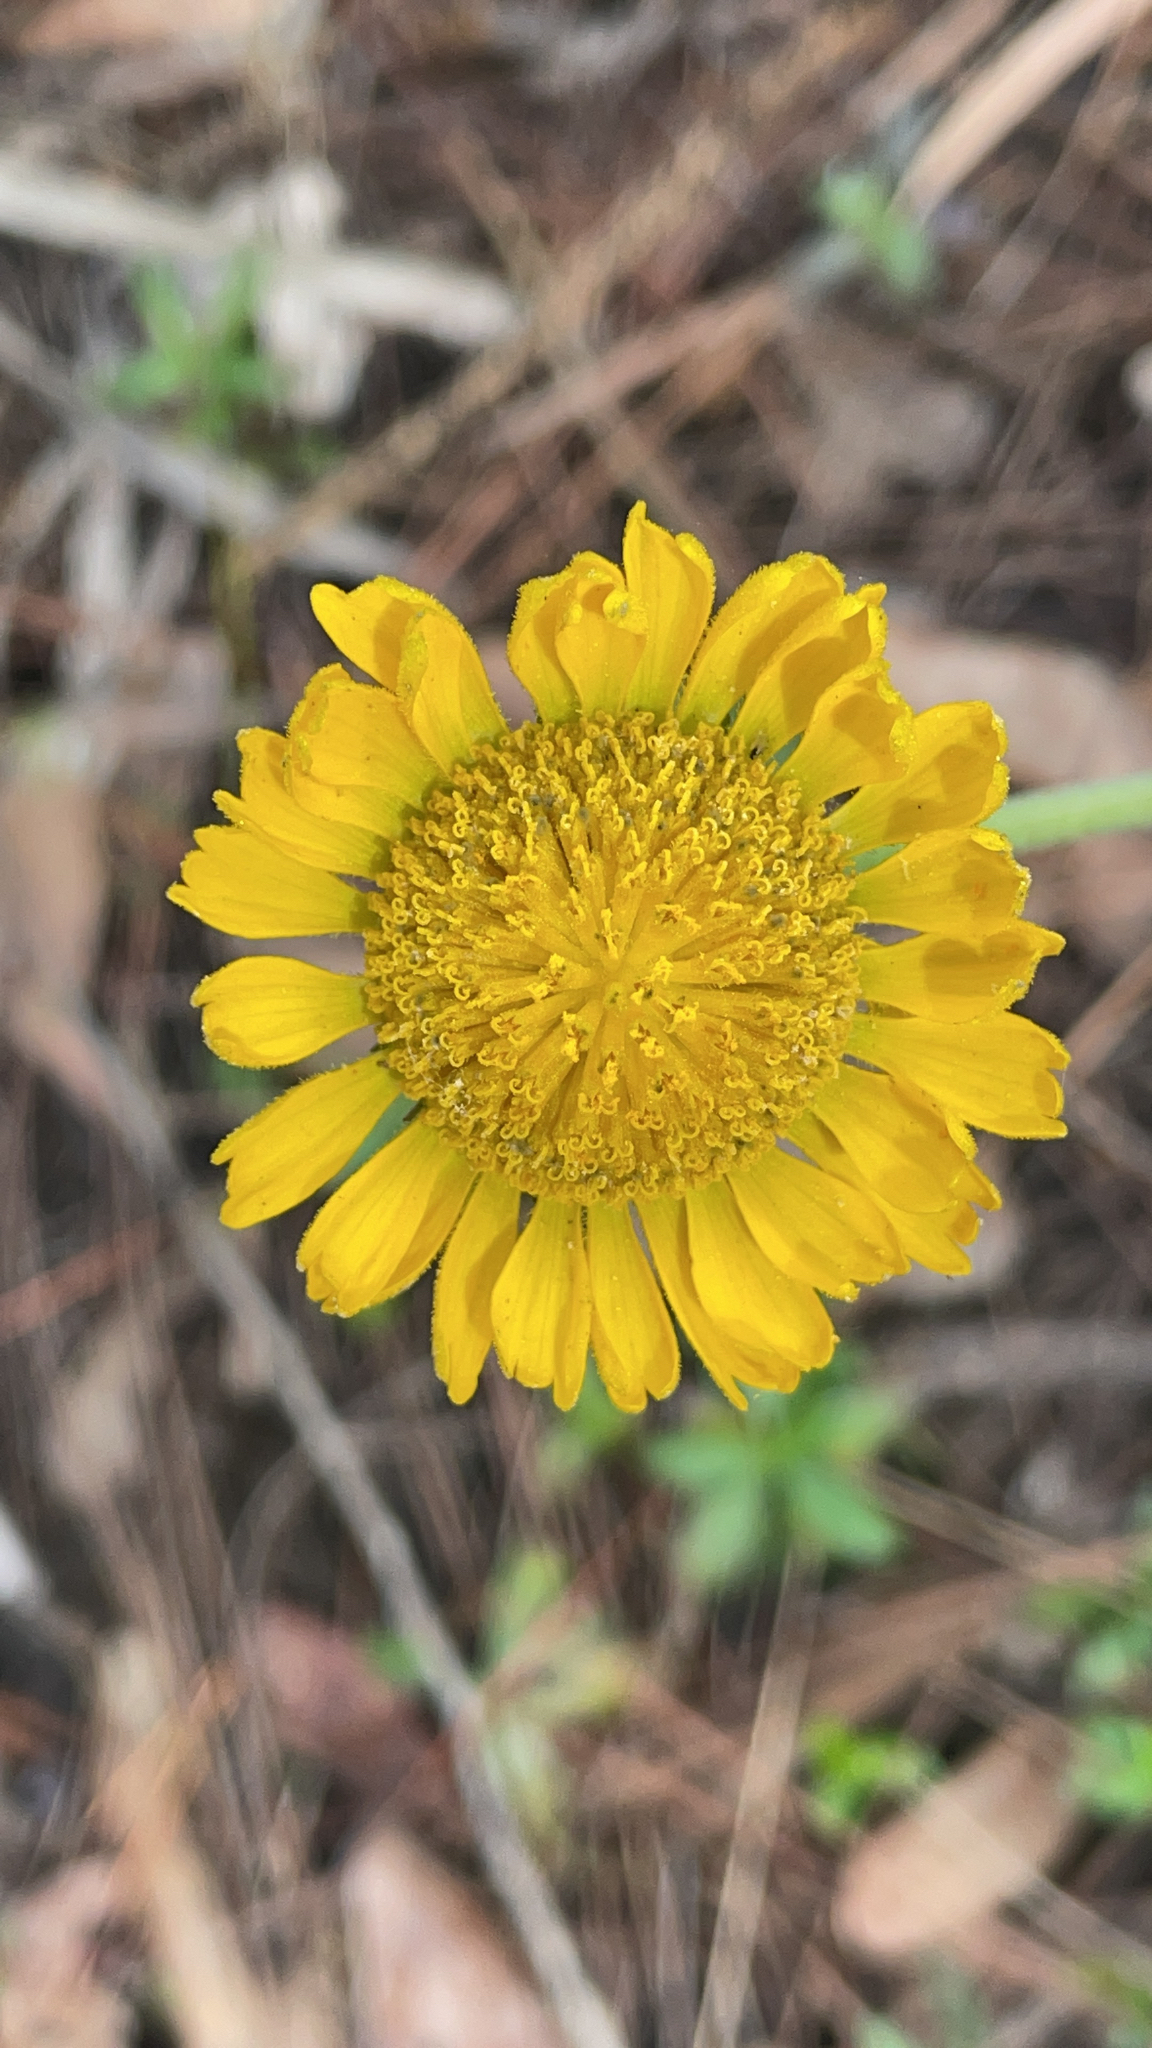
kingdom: Plantae
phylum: Tracheophyta
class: Magnoliopsida
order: Asterales
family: Asteraceae
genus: Helenium
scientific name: Helenium pinnatifidum
